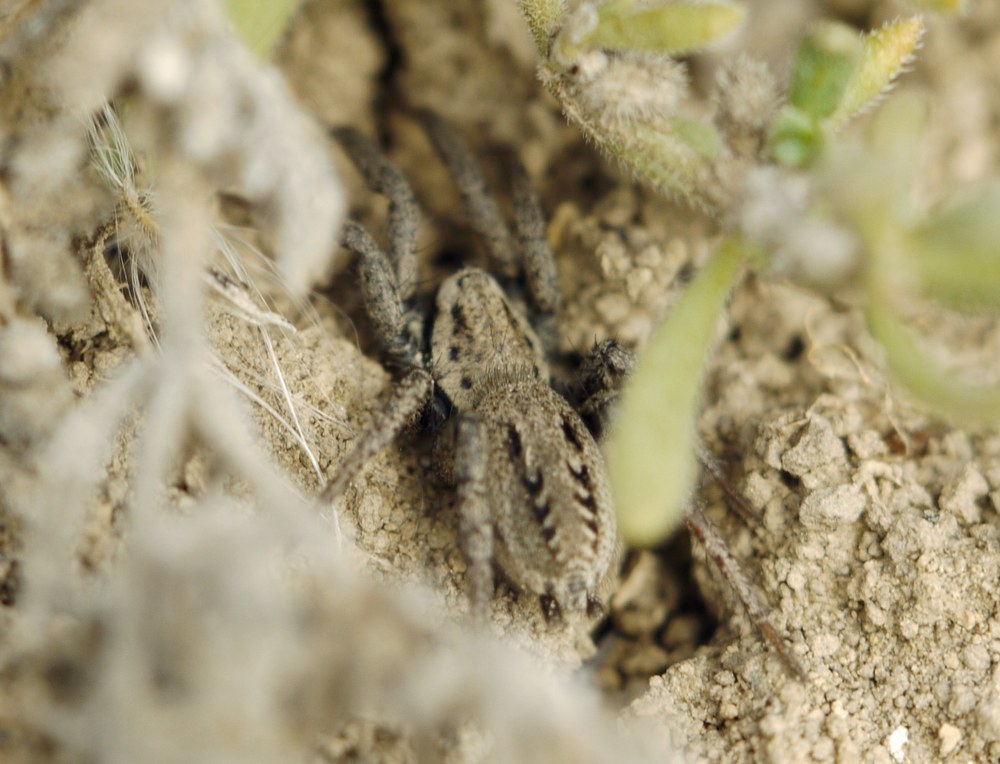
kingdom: Animalia
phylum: Arthropoda
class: Arachnida
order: Araneae
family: Gnaphosidae
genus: Berlandina
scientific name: Berlandina cinerea
